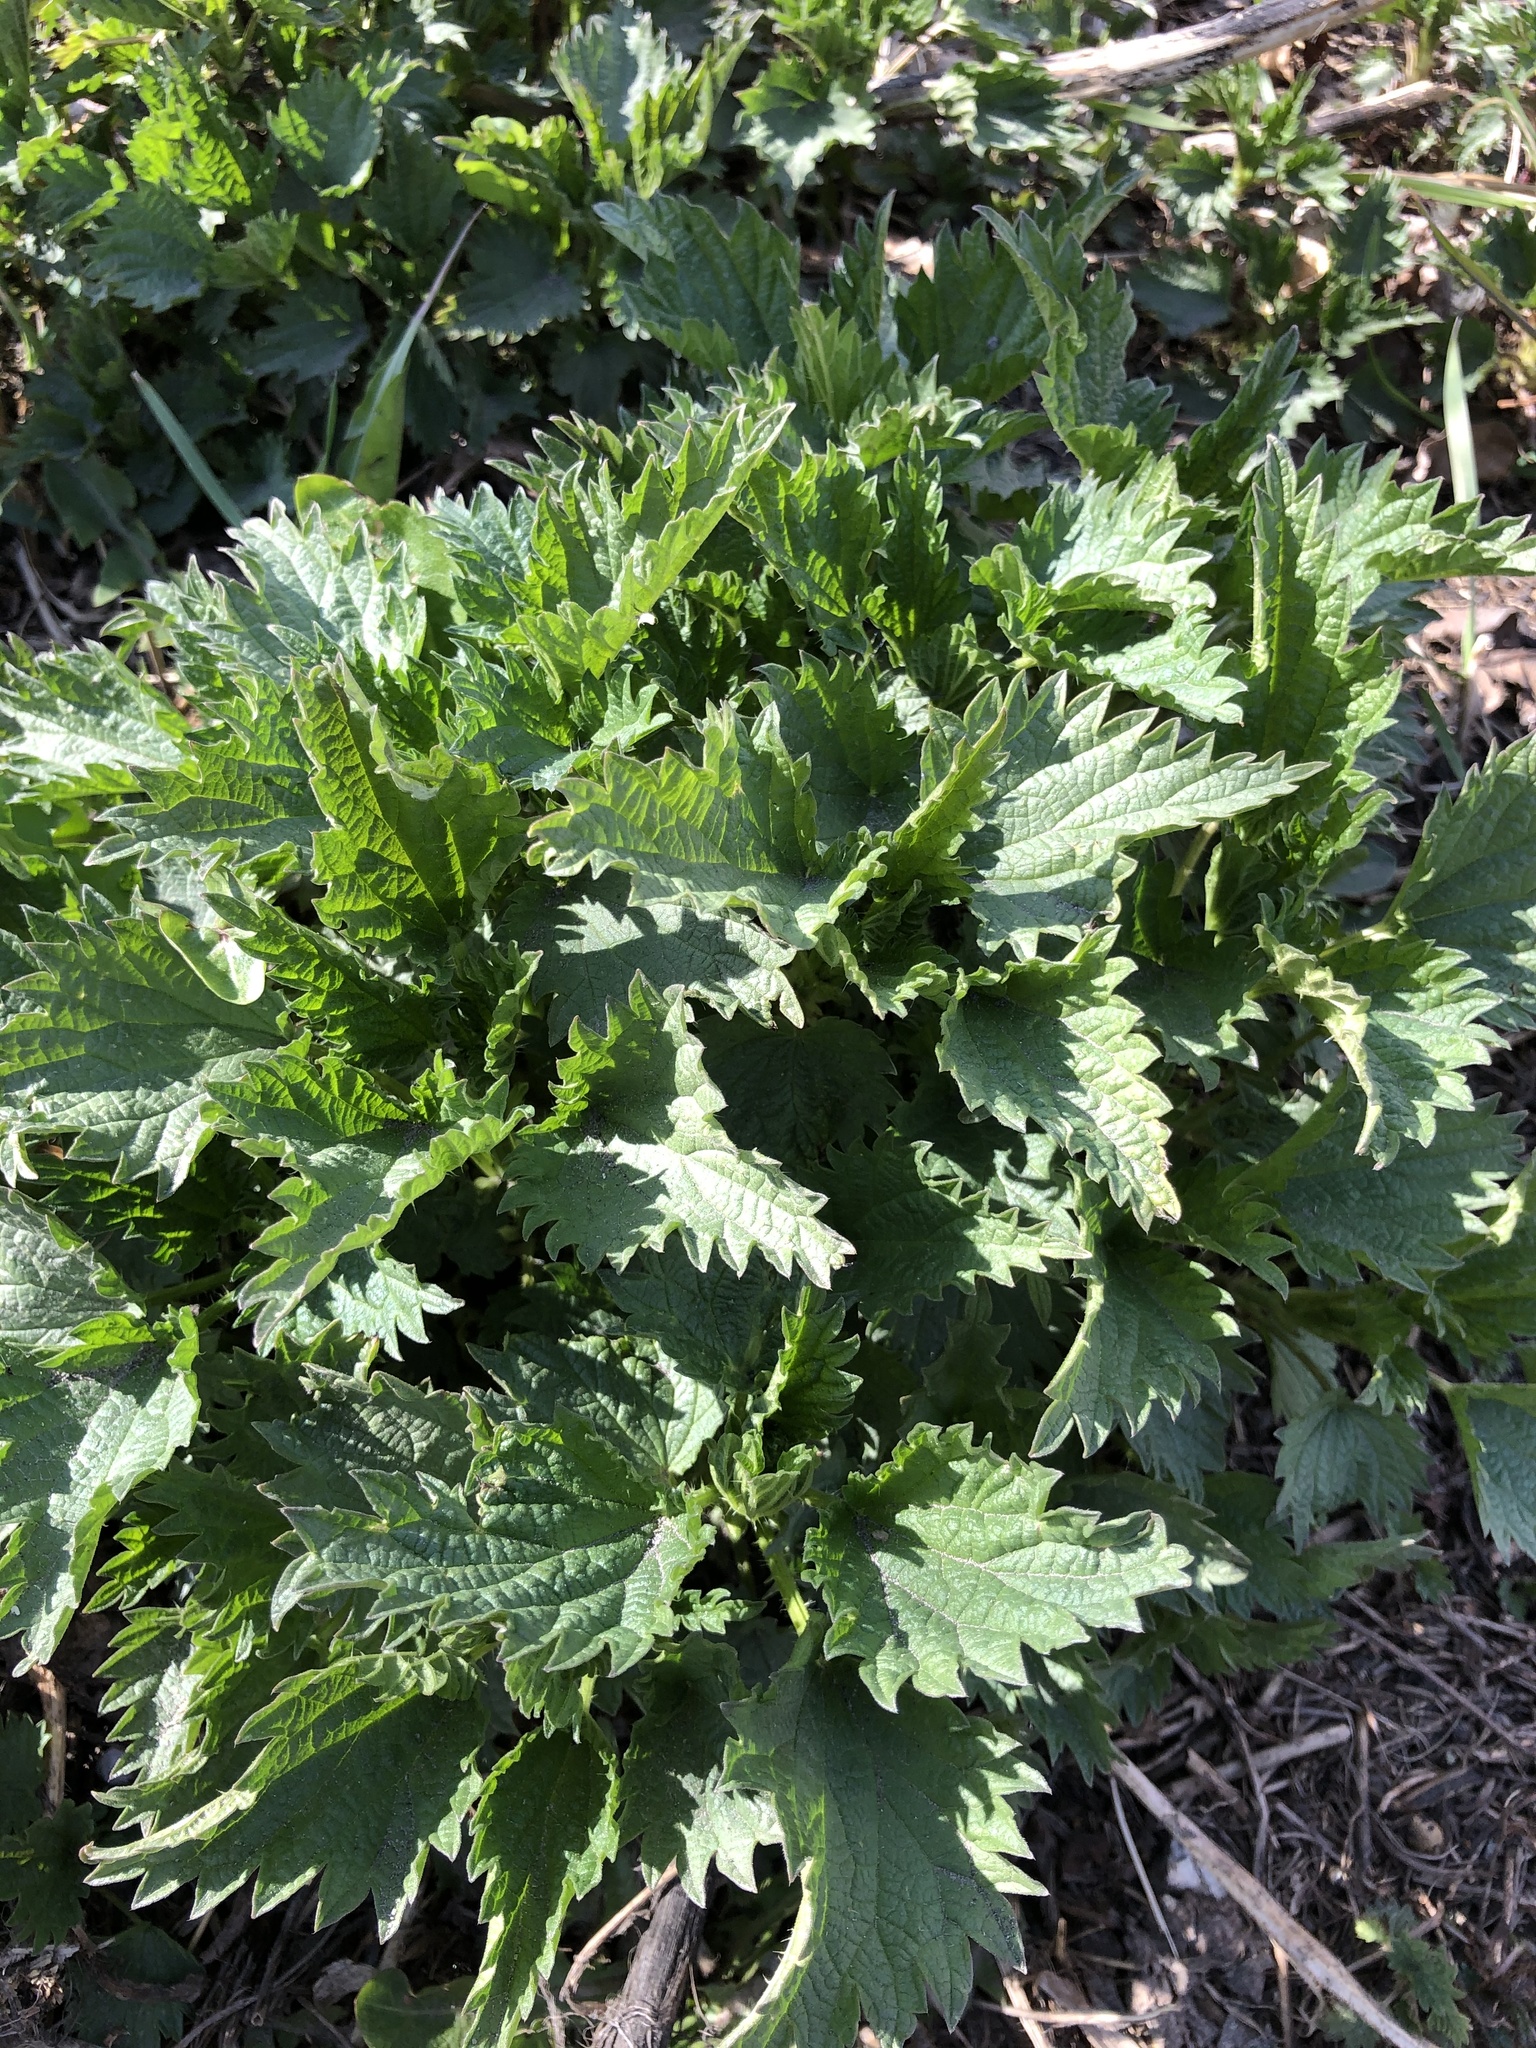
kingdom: Plantae
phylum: Tracheophyta
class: Magnoliopsida
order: Rosales
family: Urticaceae
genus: Urtica
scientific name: Urtica dioica
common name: Common nettle
